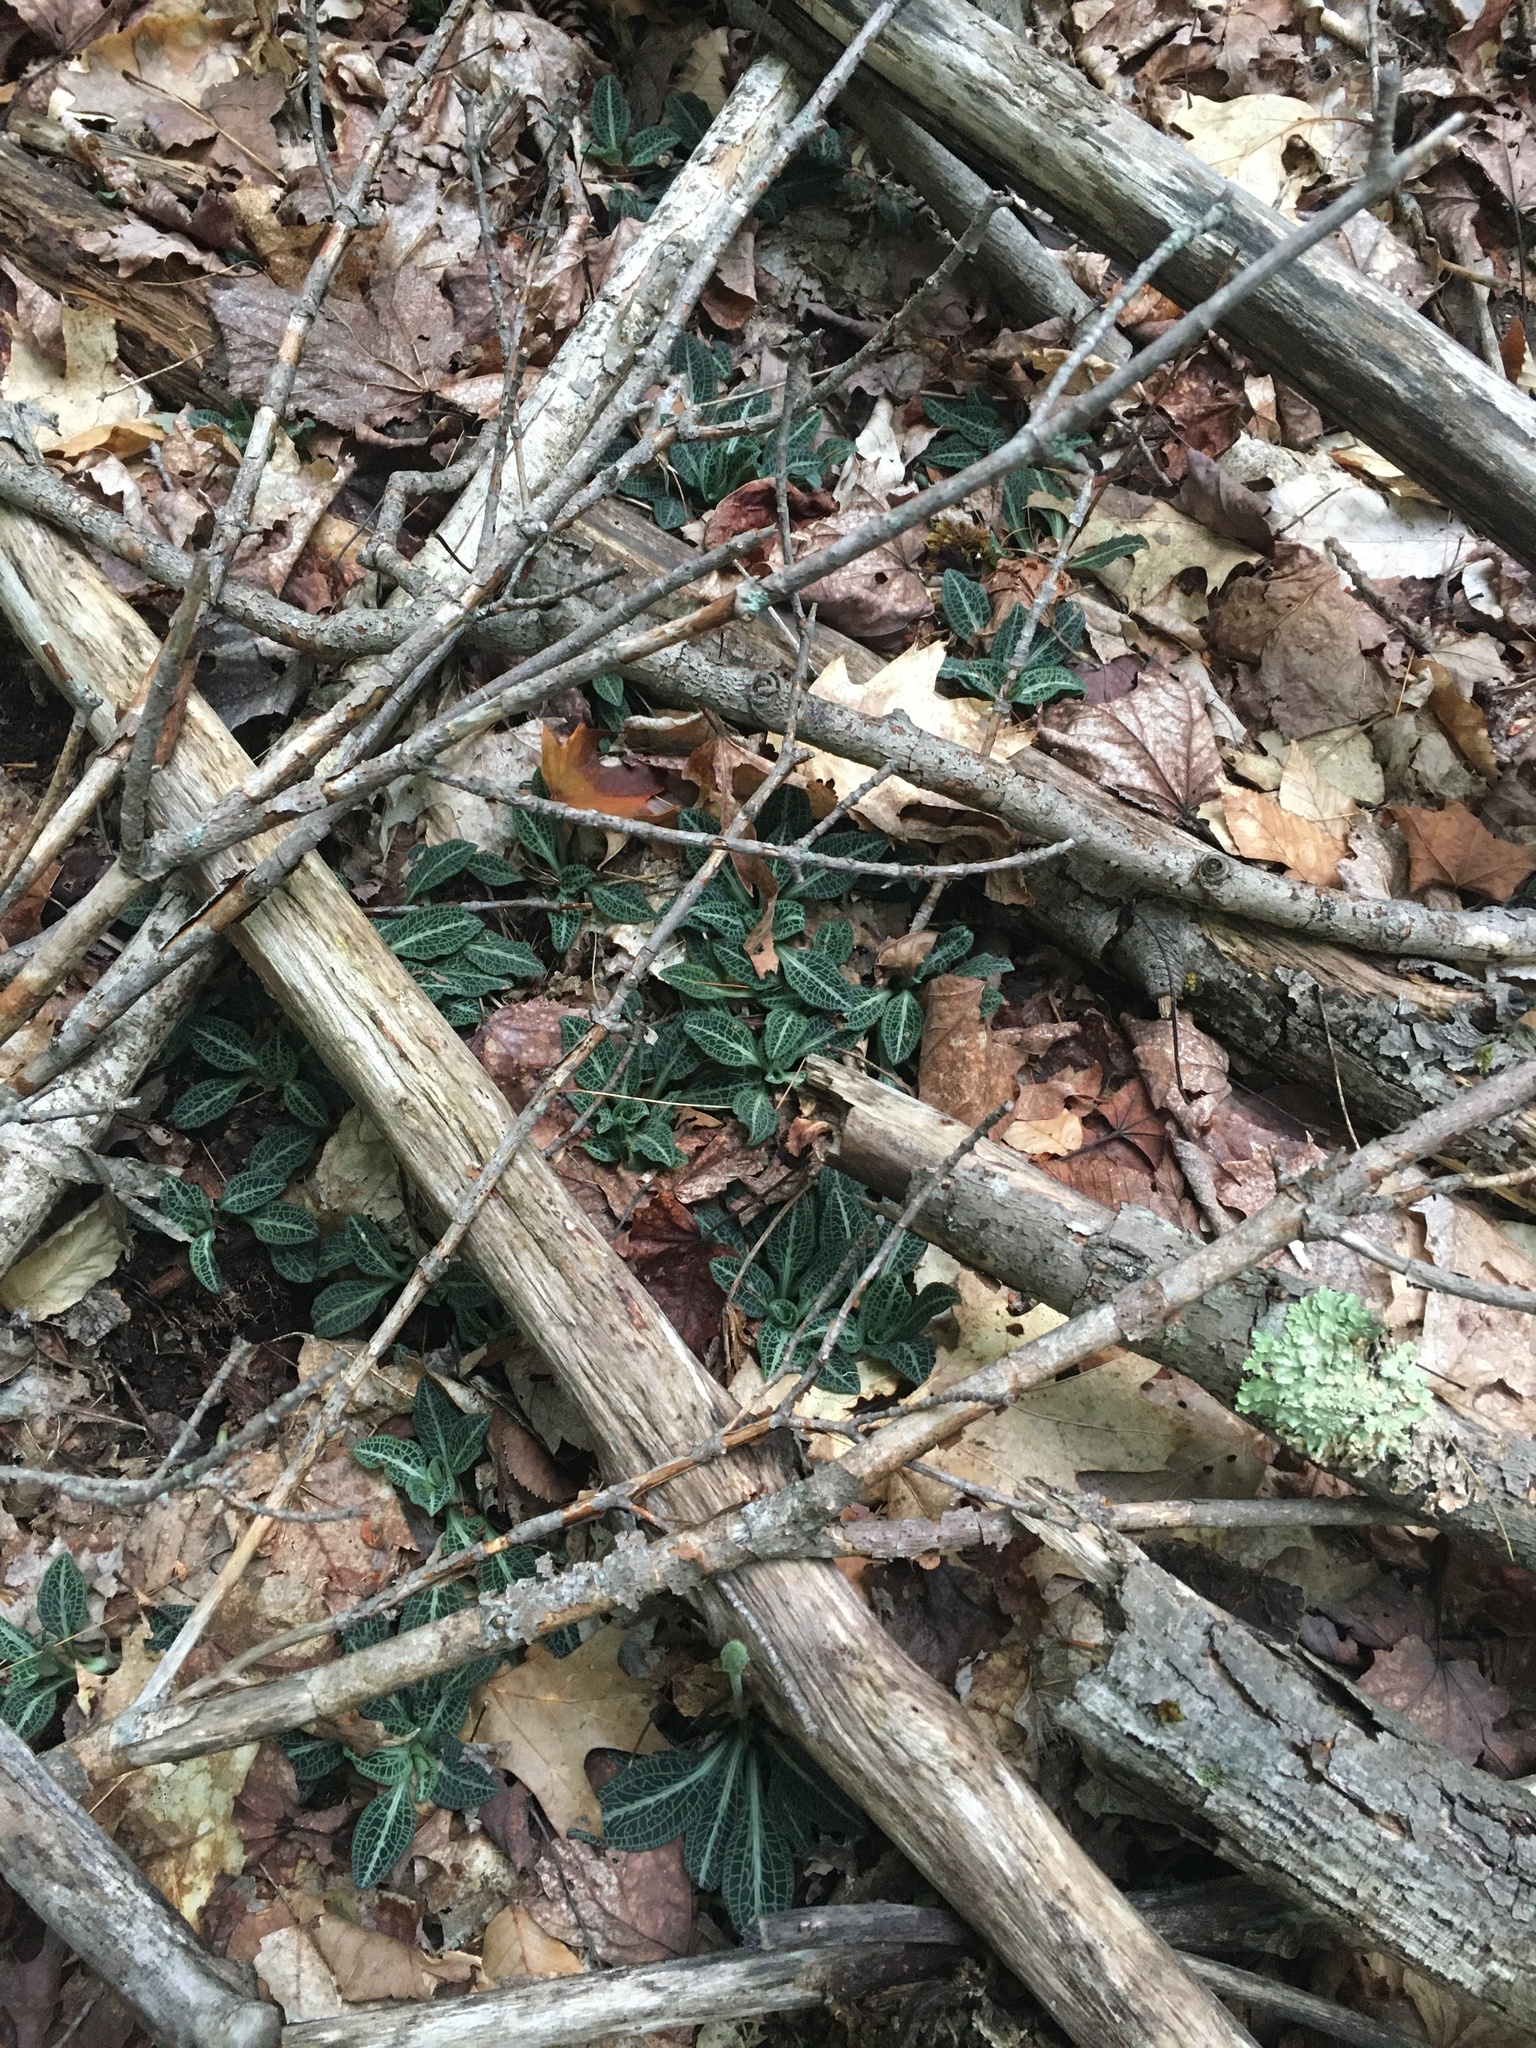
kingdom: Plantae
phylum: Tracheophyta
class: Liliopsida
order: Asparagales
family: Orchidaceae
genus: Goodyera
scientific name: Goodyera pubescens
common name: Downy rattlesnake-plantain
